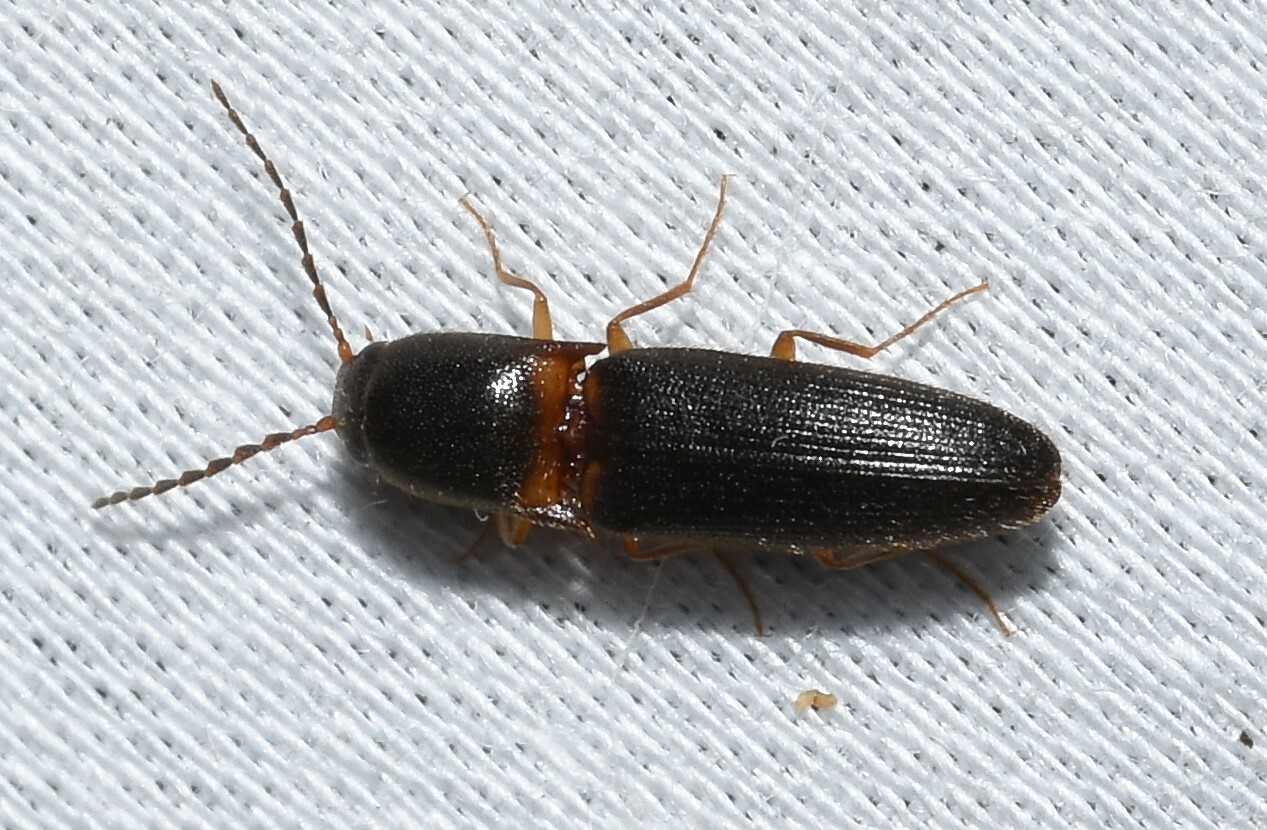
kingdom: Animalia
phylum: Arthropoda
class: Insecta
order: Coleoptera
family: Elateridae
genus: Megapenthes
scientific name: Megapenthes
